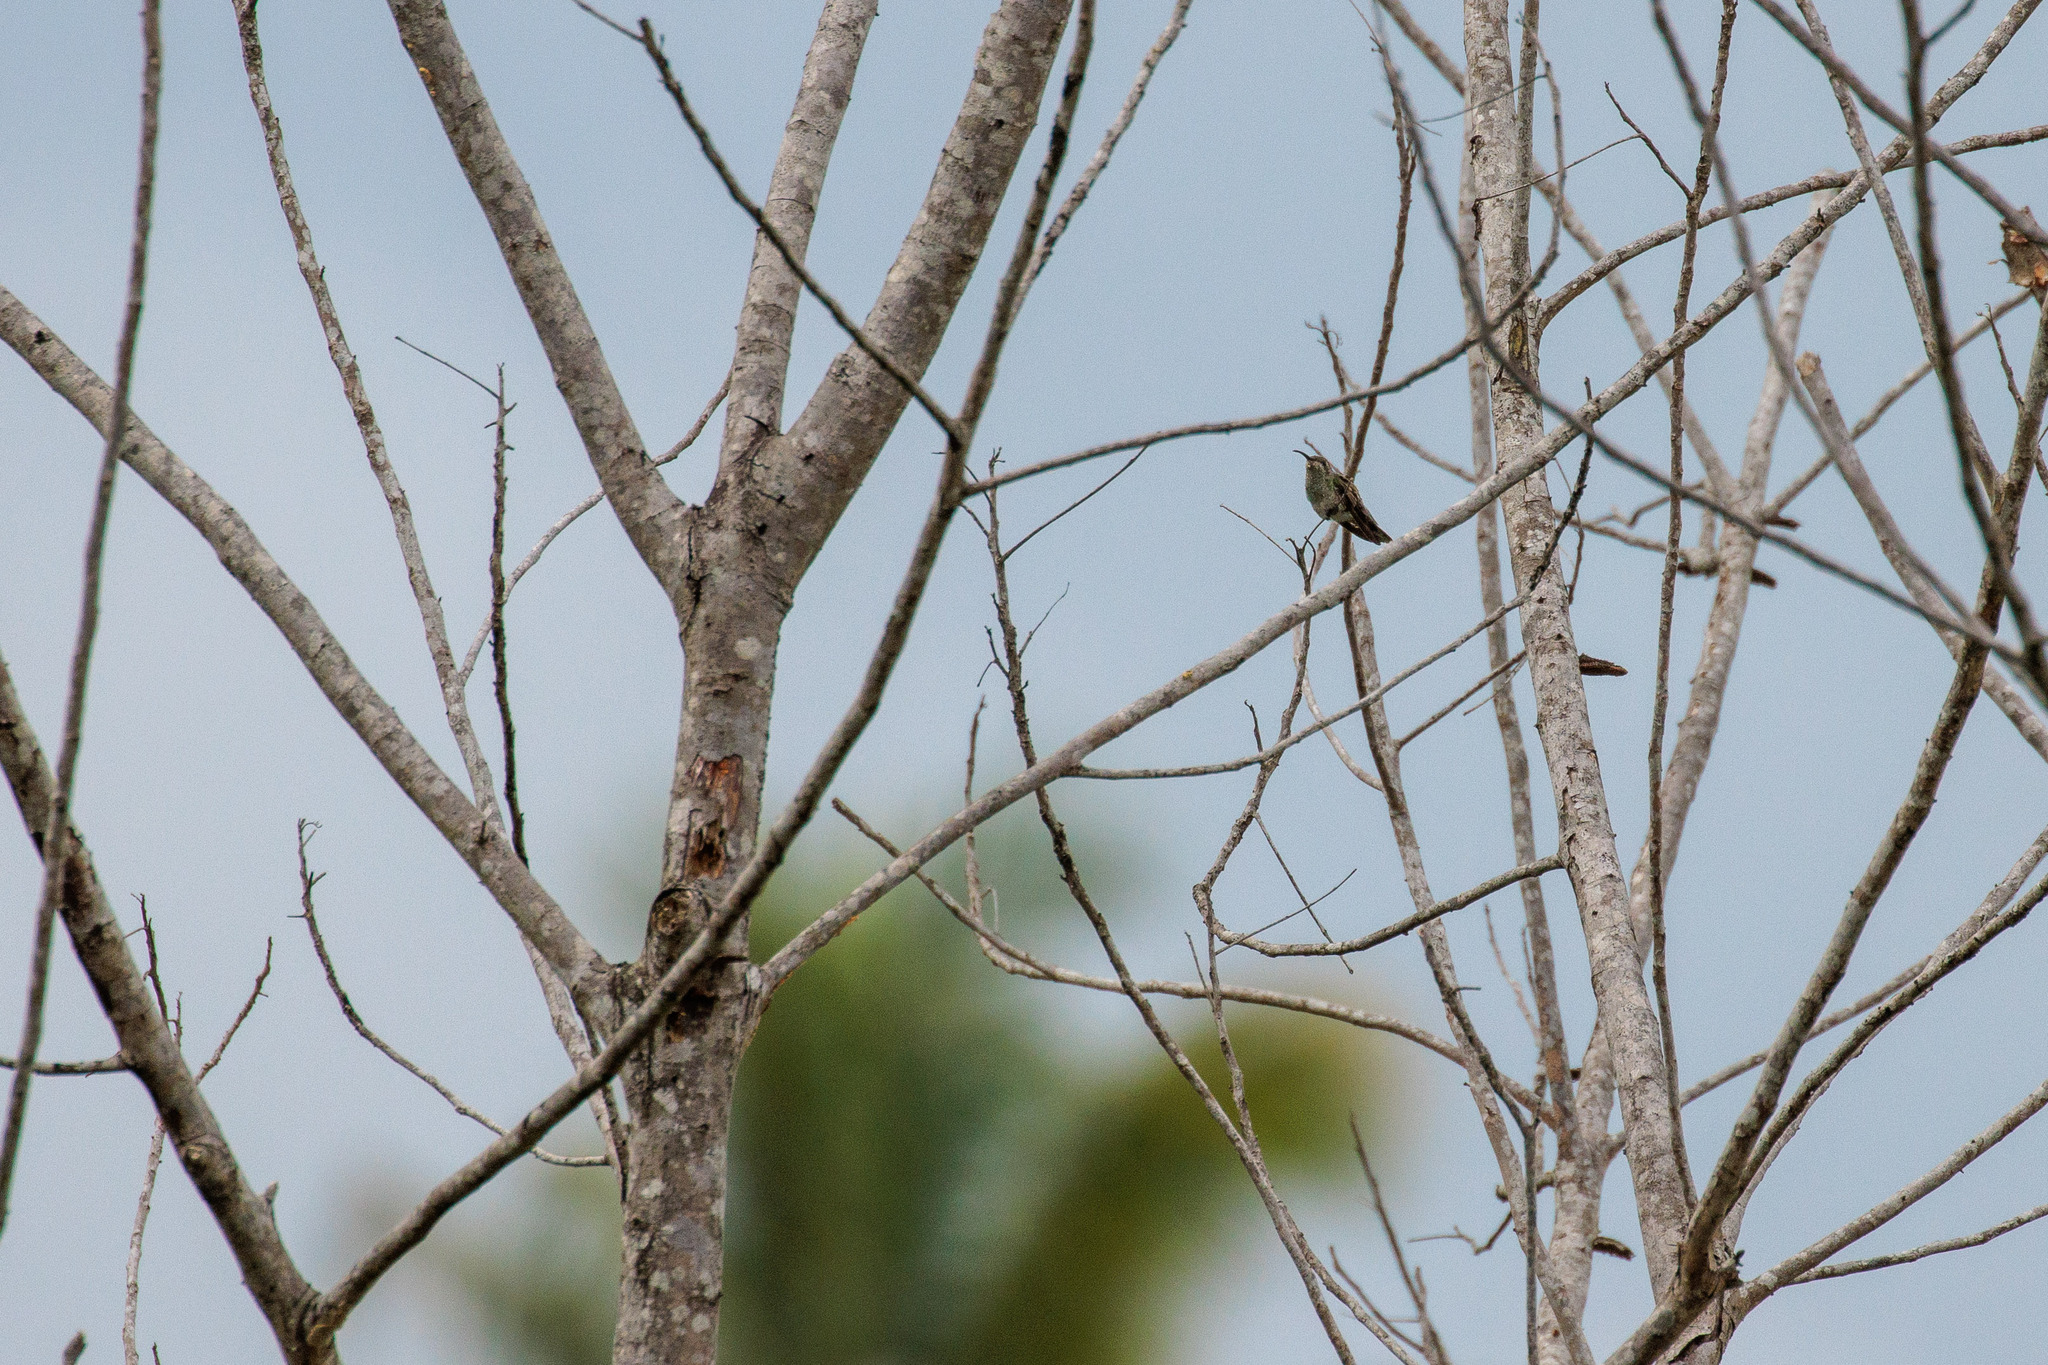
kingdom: Animalia
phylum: Chordata
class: Aves
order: Apodiformes
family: Trochilidae
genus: Polytmus
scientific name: Polytmus guainumbi
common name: White-tailed goldenthroat
